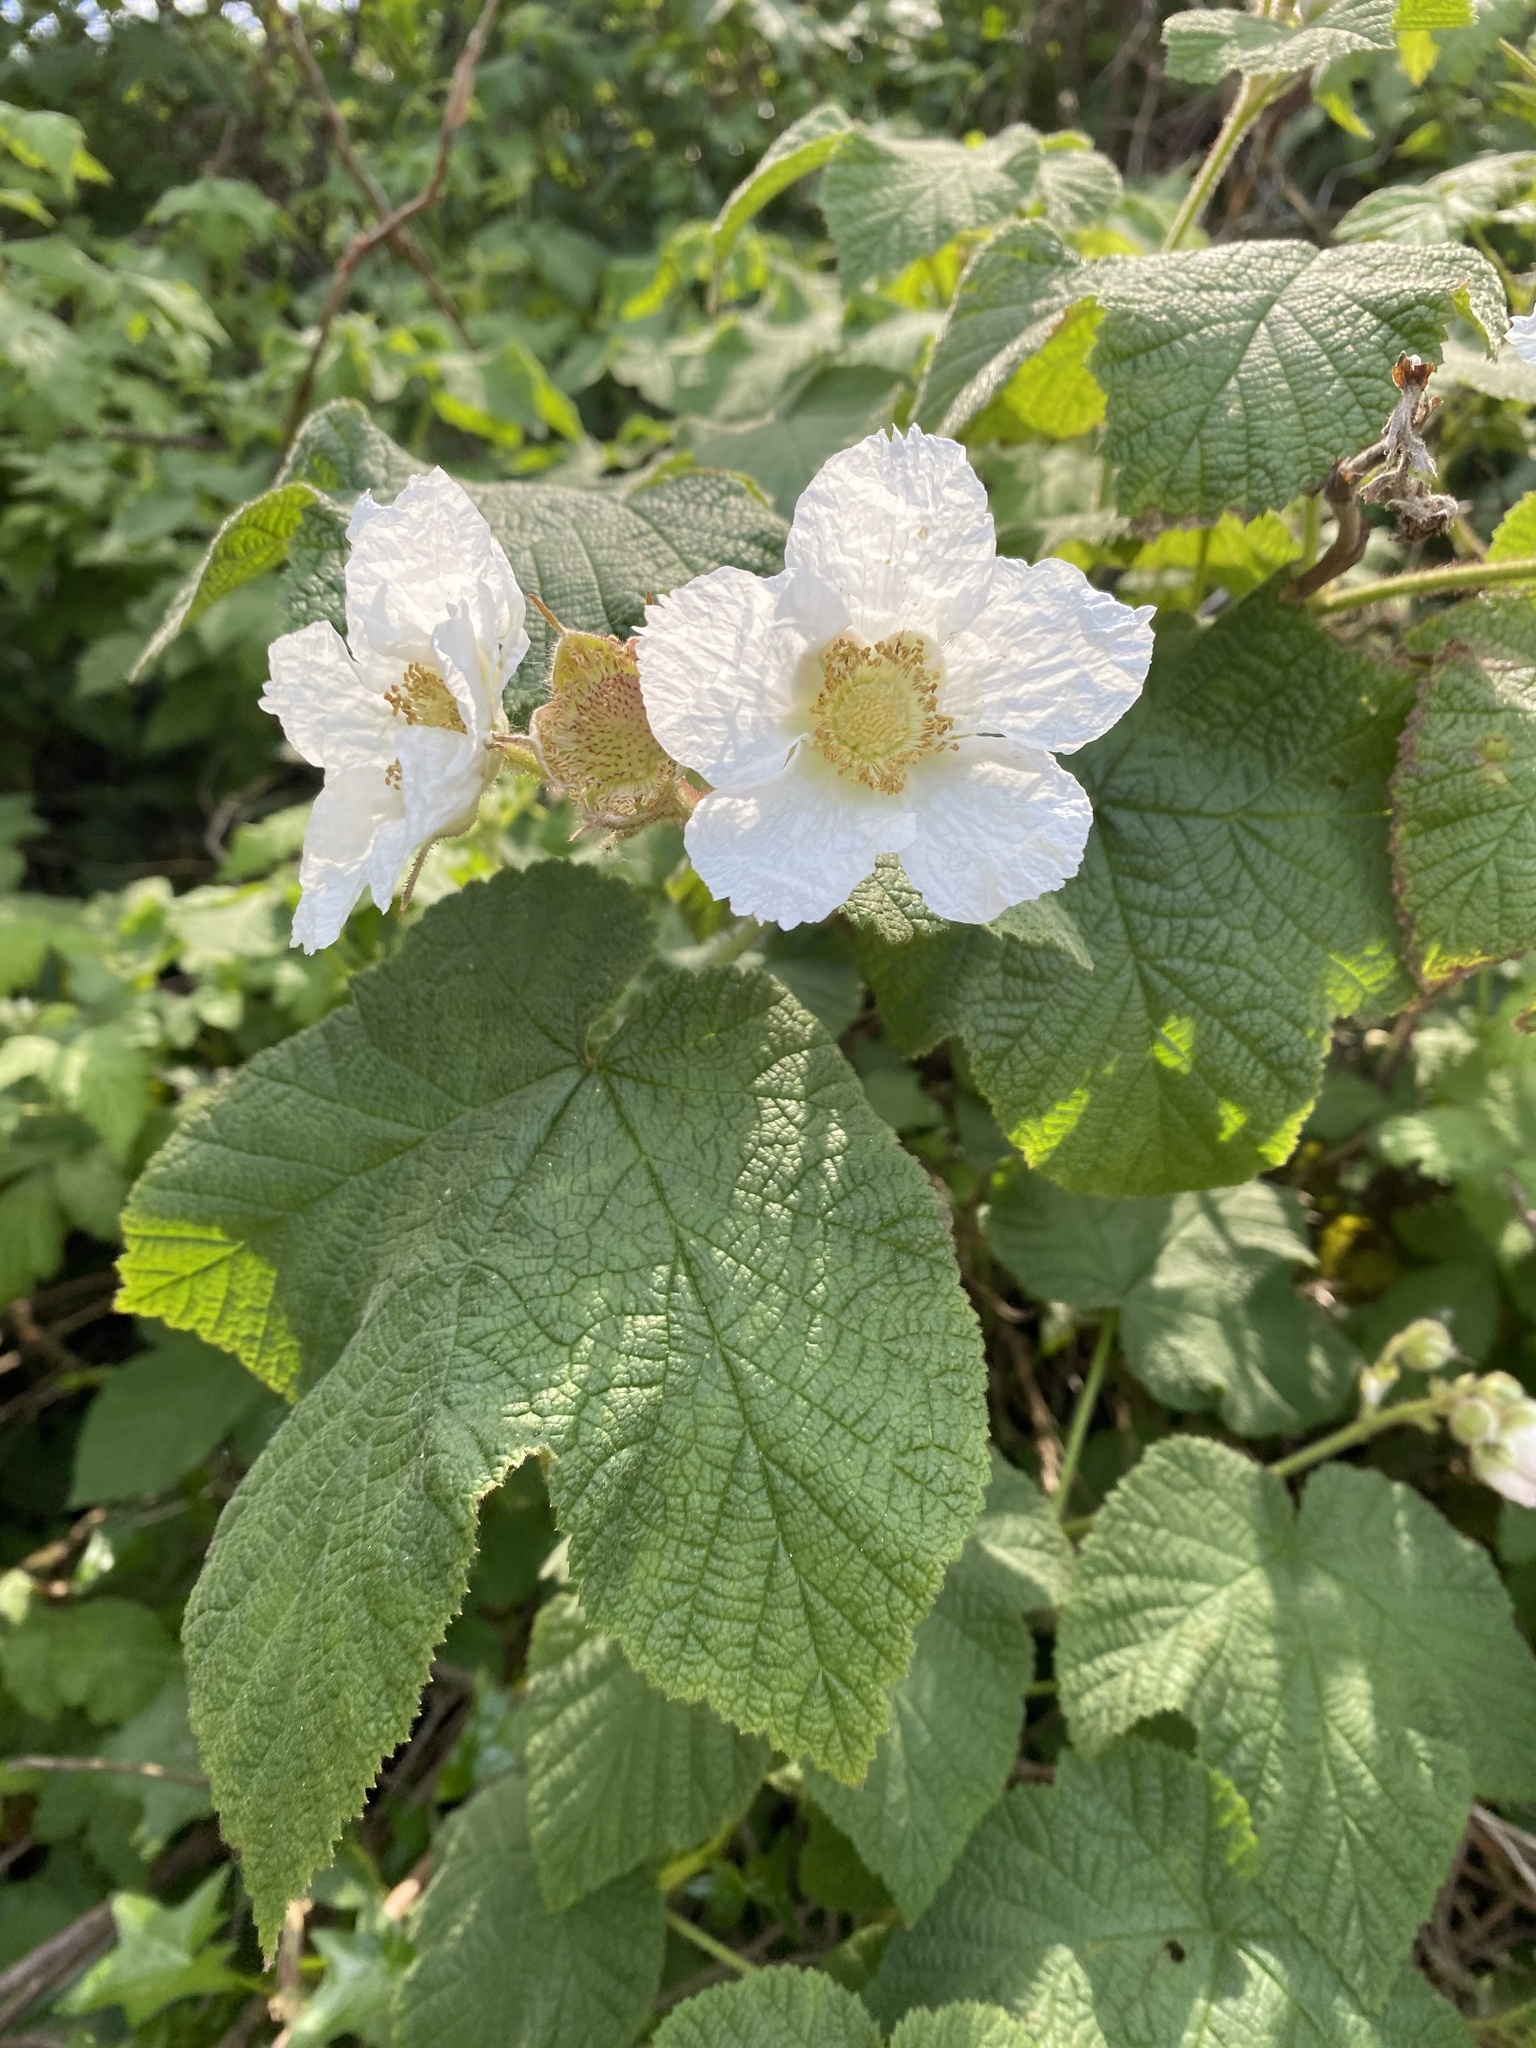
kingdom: Plantae
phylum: Tracheophyta
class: Magnoliopsida
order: Rosales
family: Rosaceae
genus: Rubus
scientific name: Rubus parviflorus
